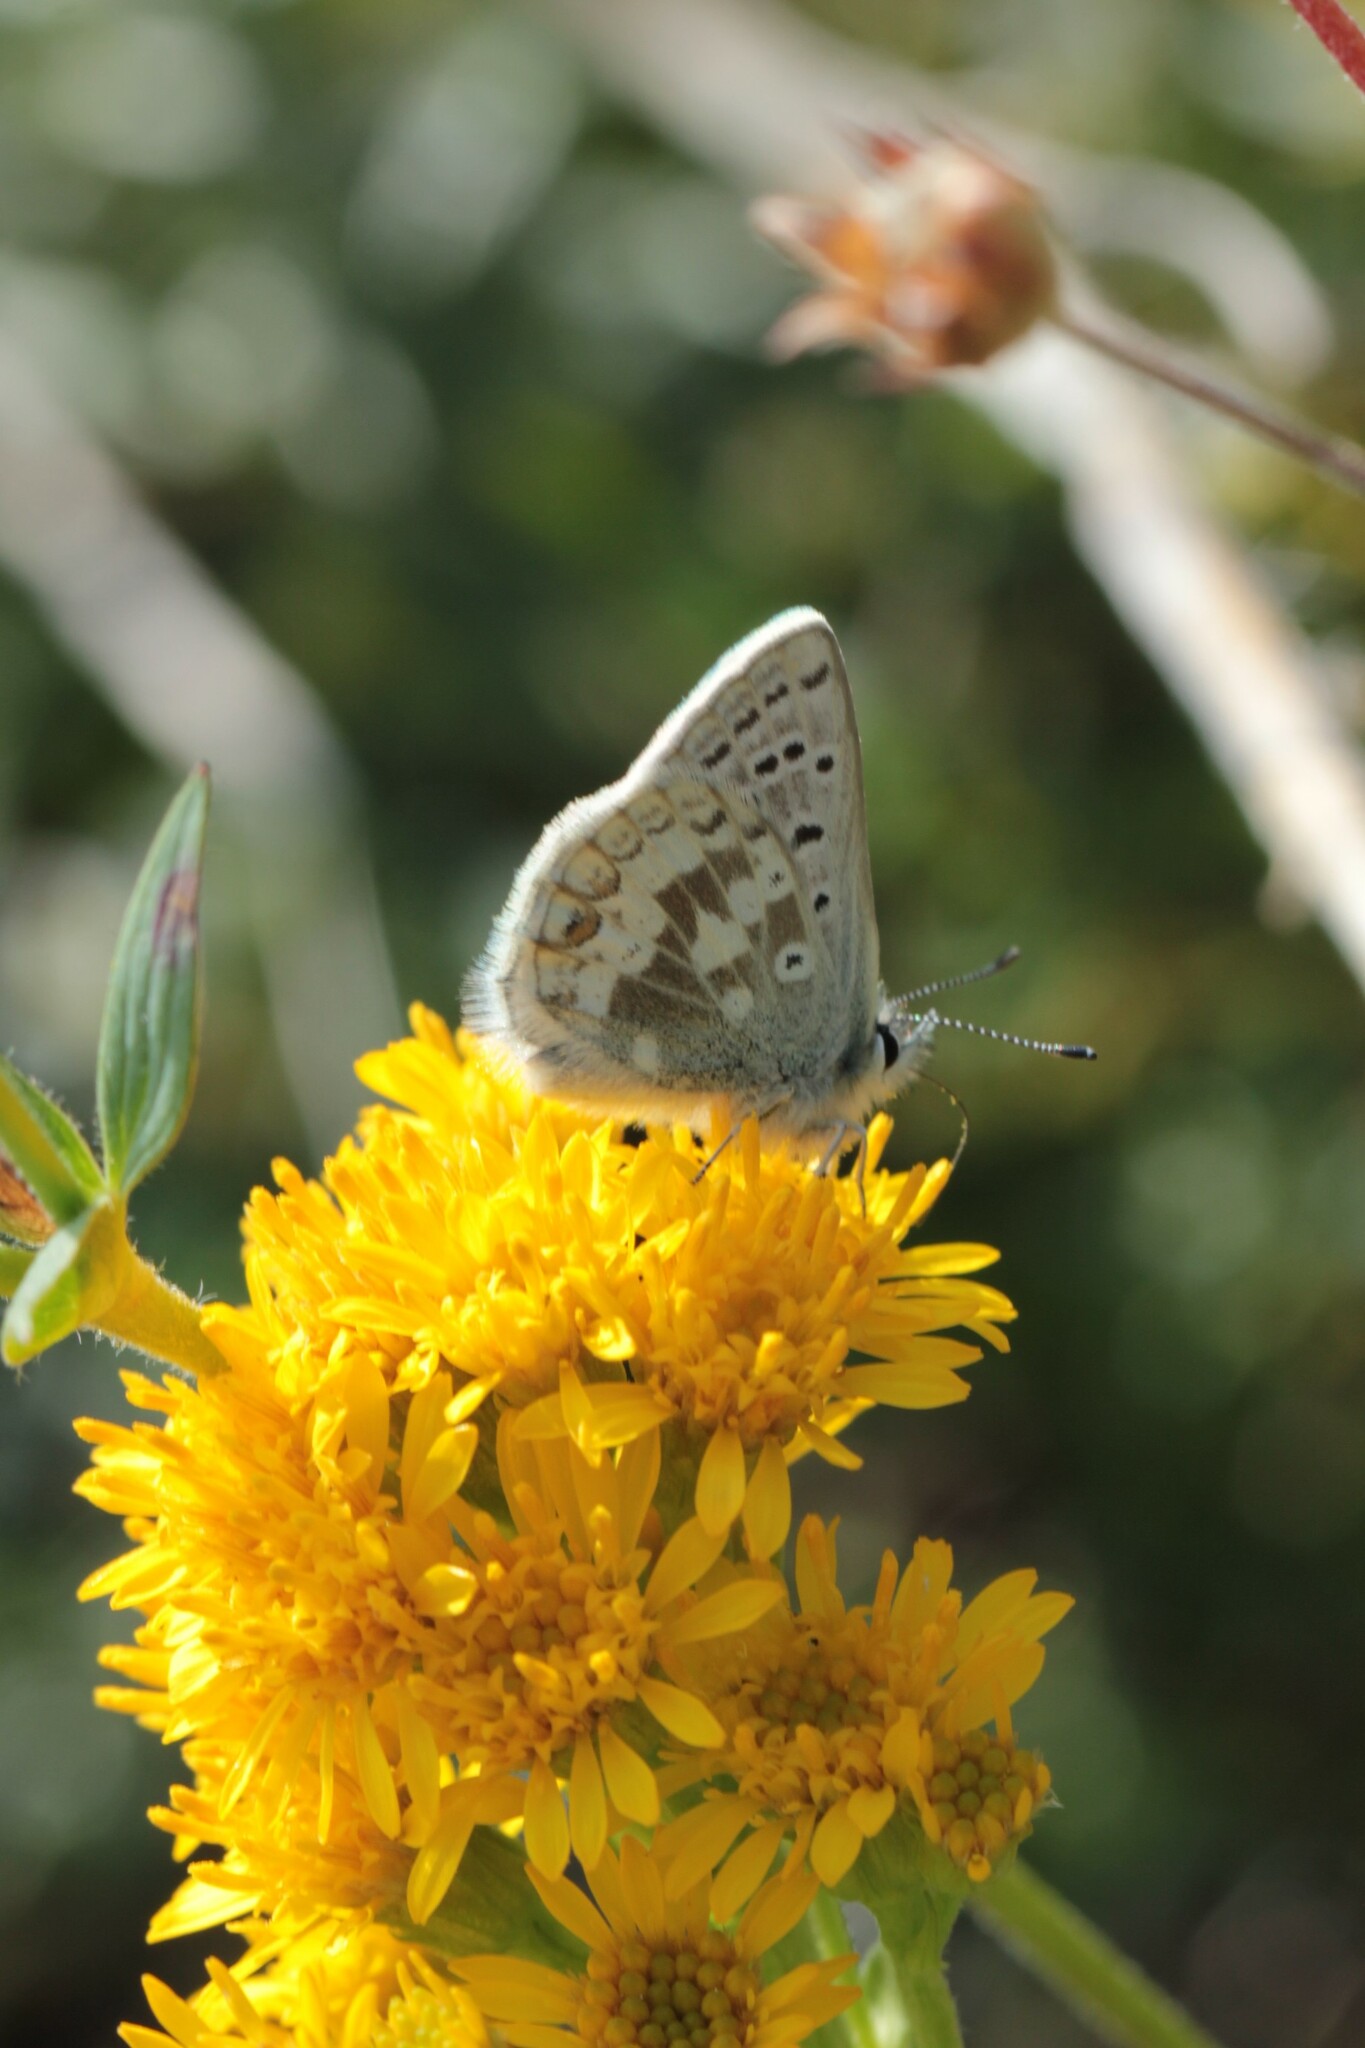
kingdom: Animalia
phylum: Arthropoda
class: Insecta
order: Lepidoptera
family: Lycaenidae
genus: Agriades
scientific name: Agriades glandon
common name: Glandon blue
